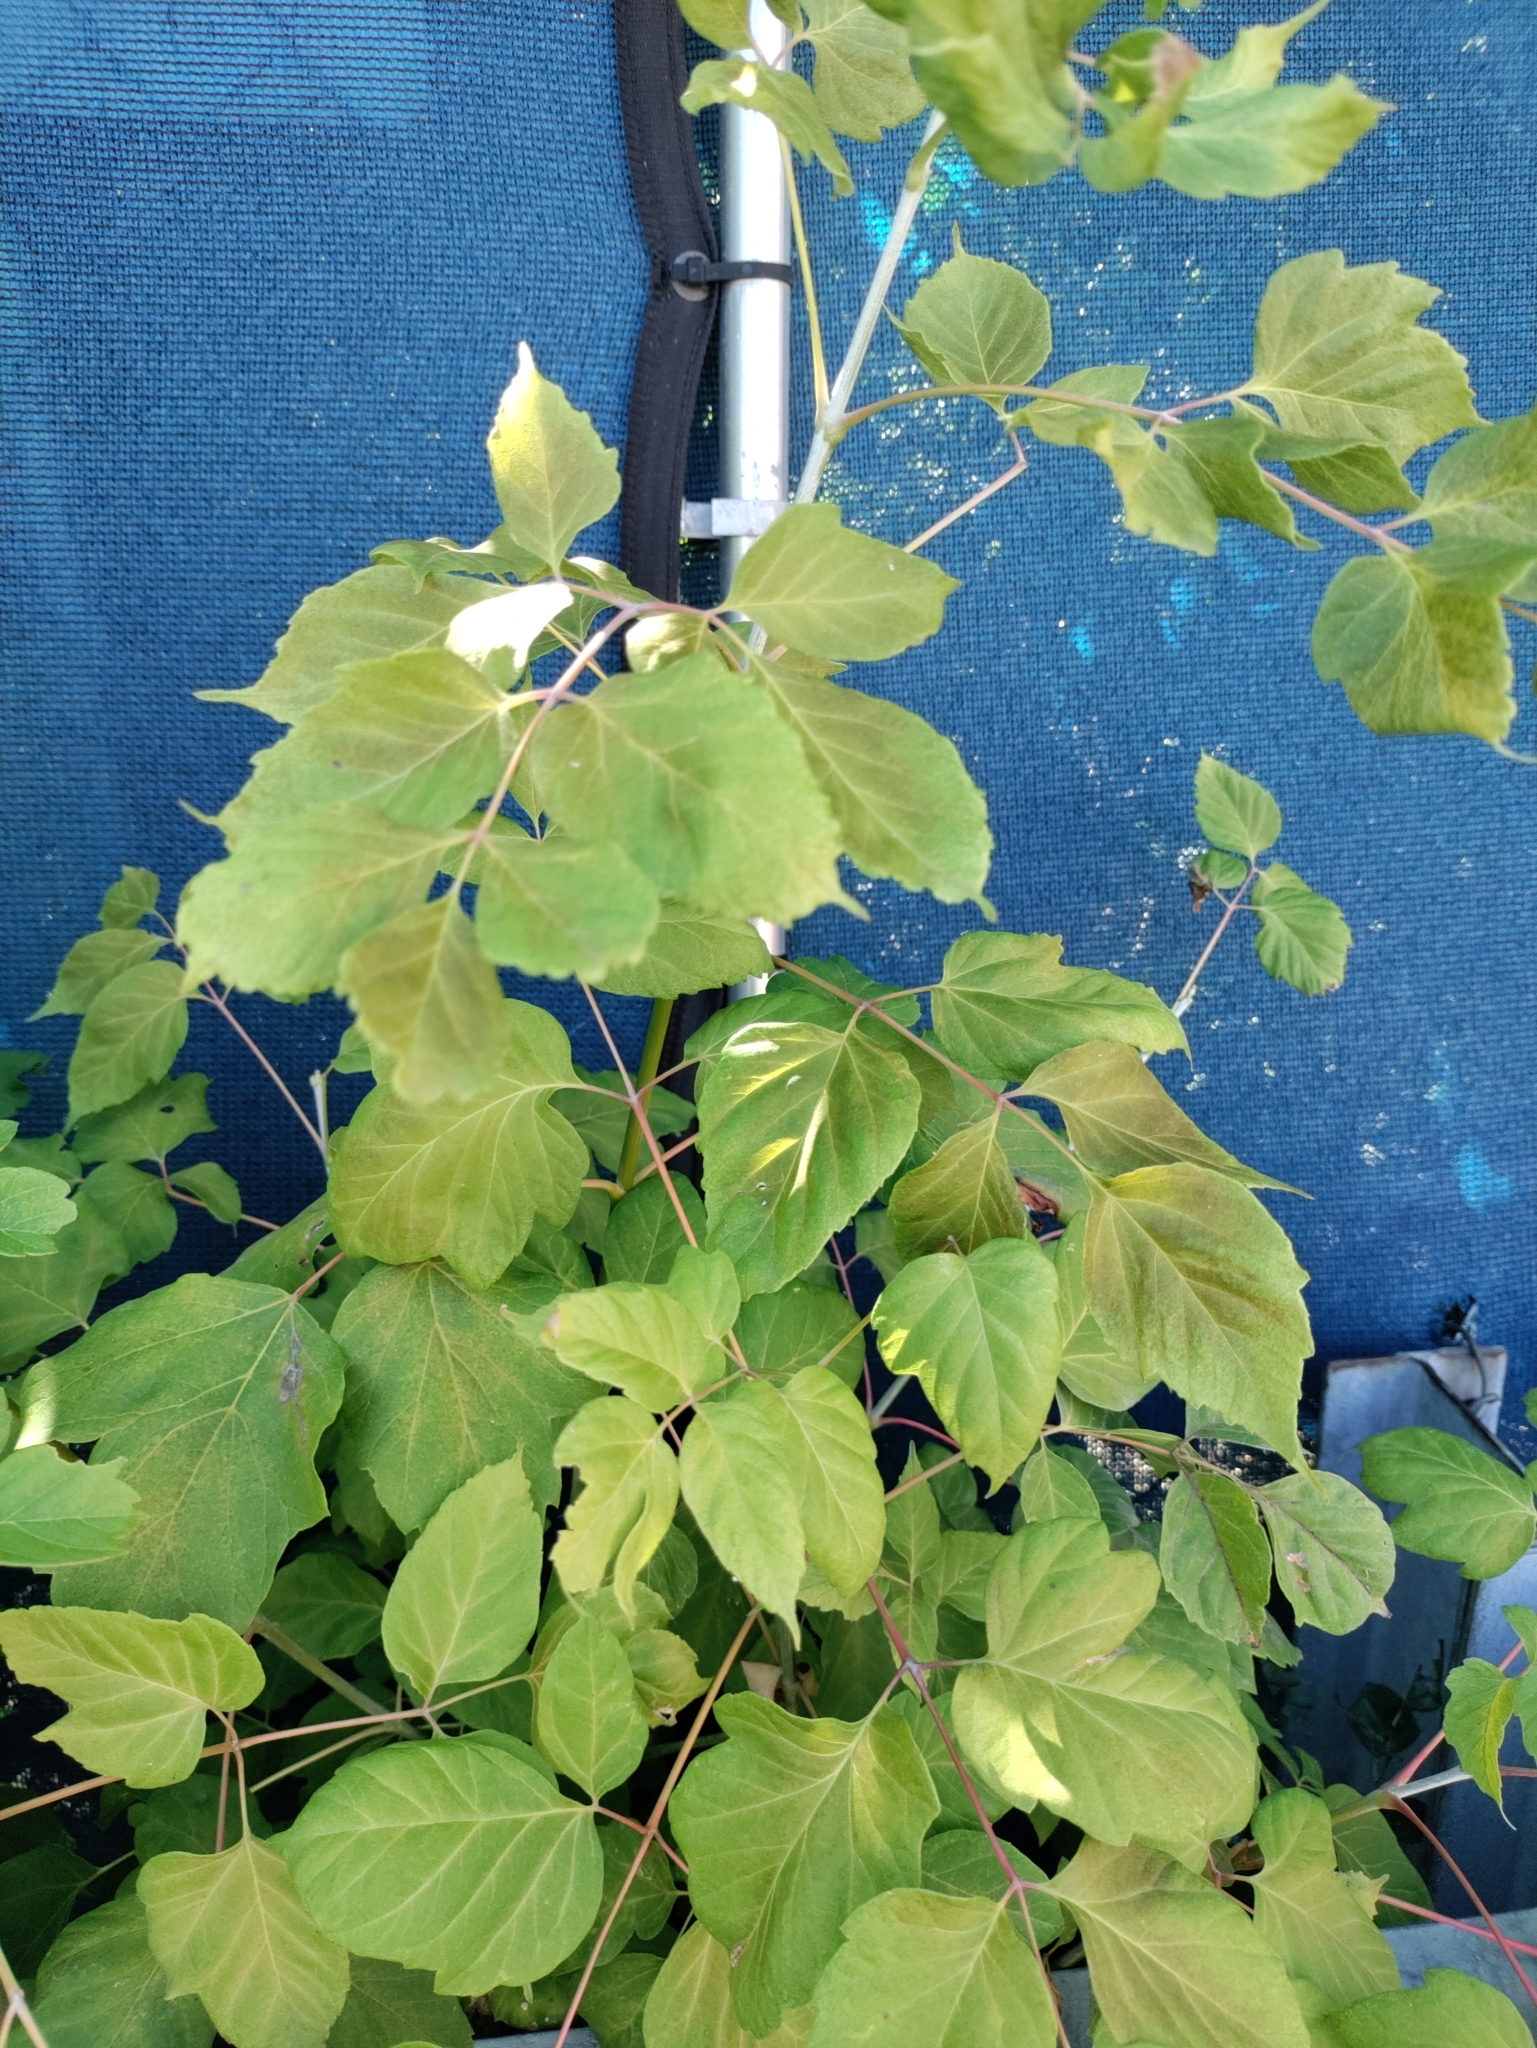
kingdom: Plantae
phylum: Tracheophyta
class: Magnoliopsida
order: Sapindales
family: Sapindaceae
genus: Acer
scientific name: Acer negundo
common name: Ashleaf maple
